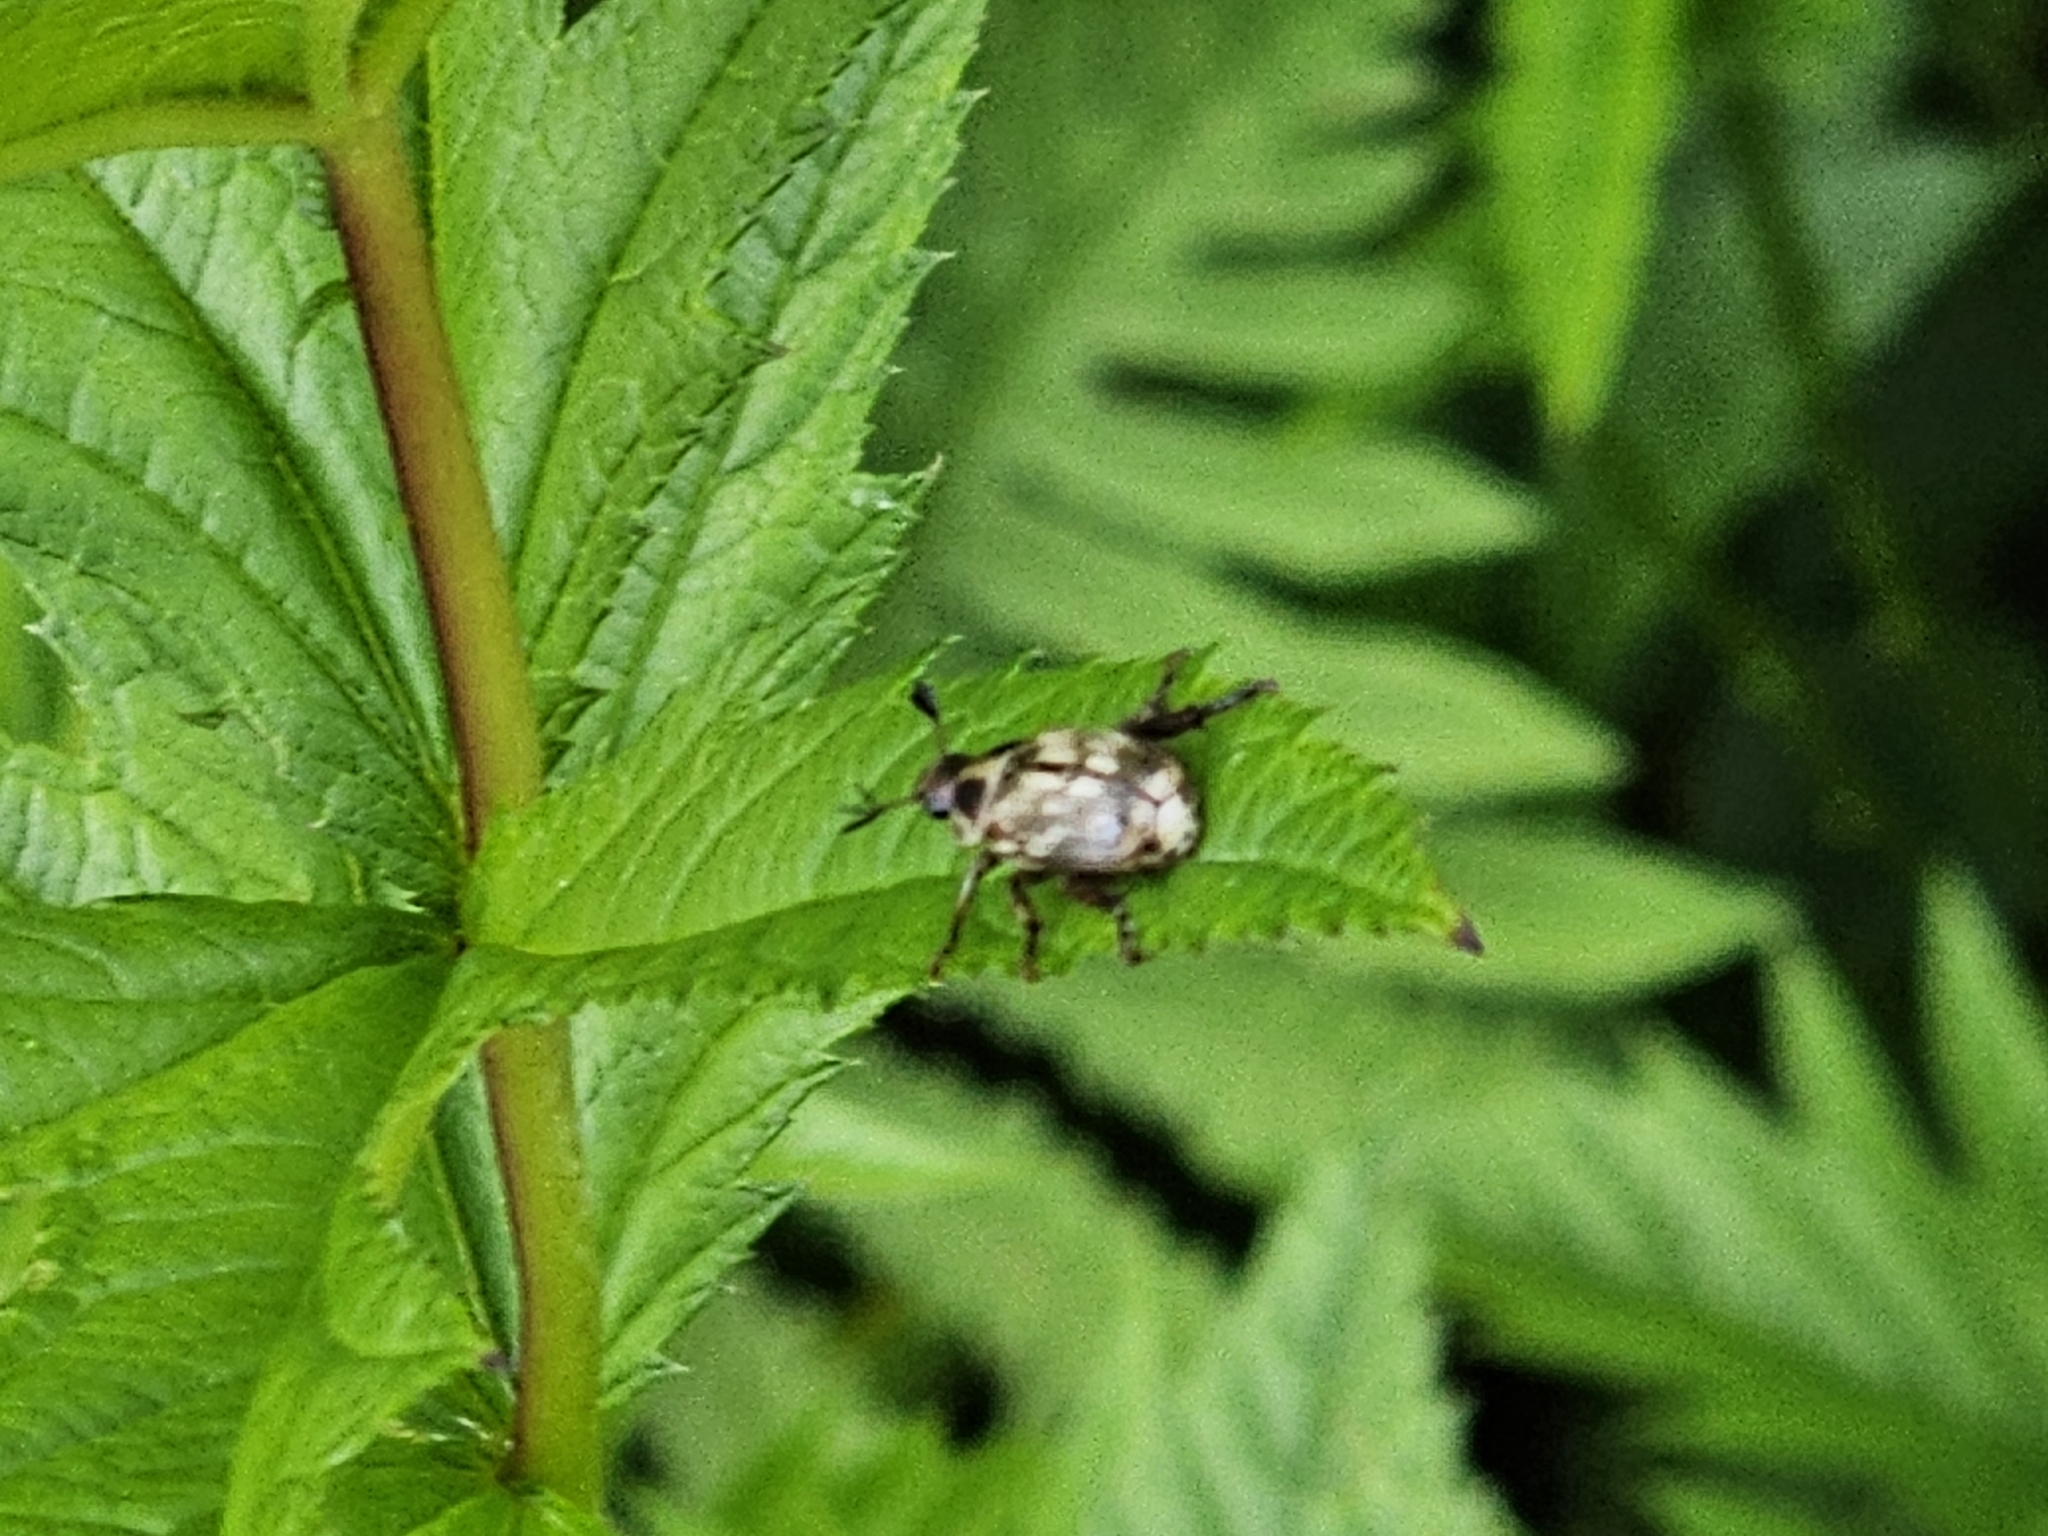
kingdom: Animalia
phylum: Arthropoda
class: Insecta
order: Coleoptera
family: Scarabaeidae
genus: Exomala
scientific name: Exomala orientalis
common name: Oriental beetle
